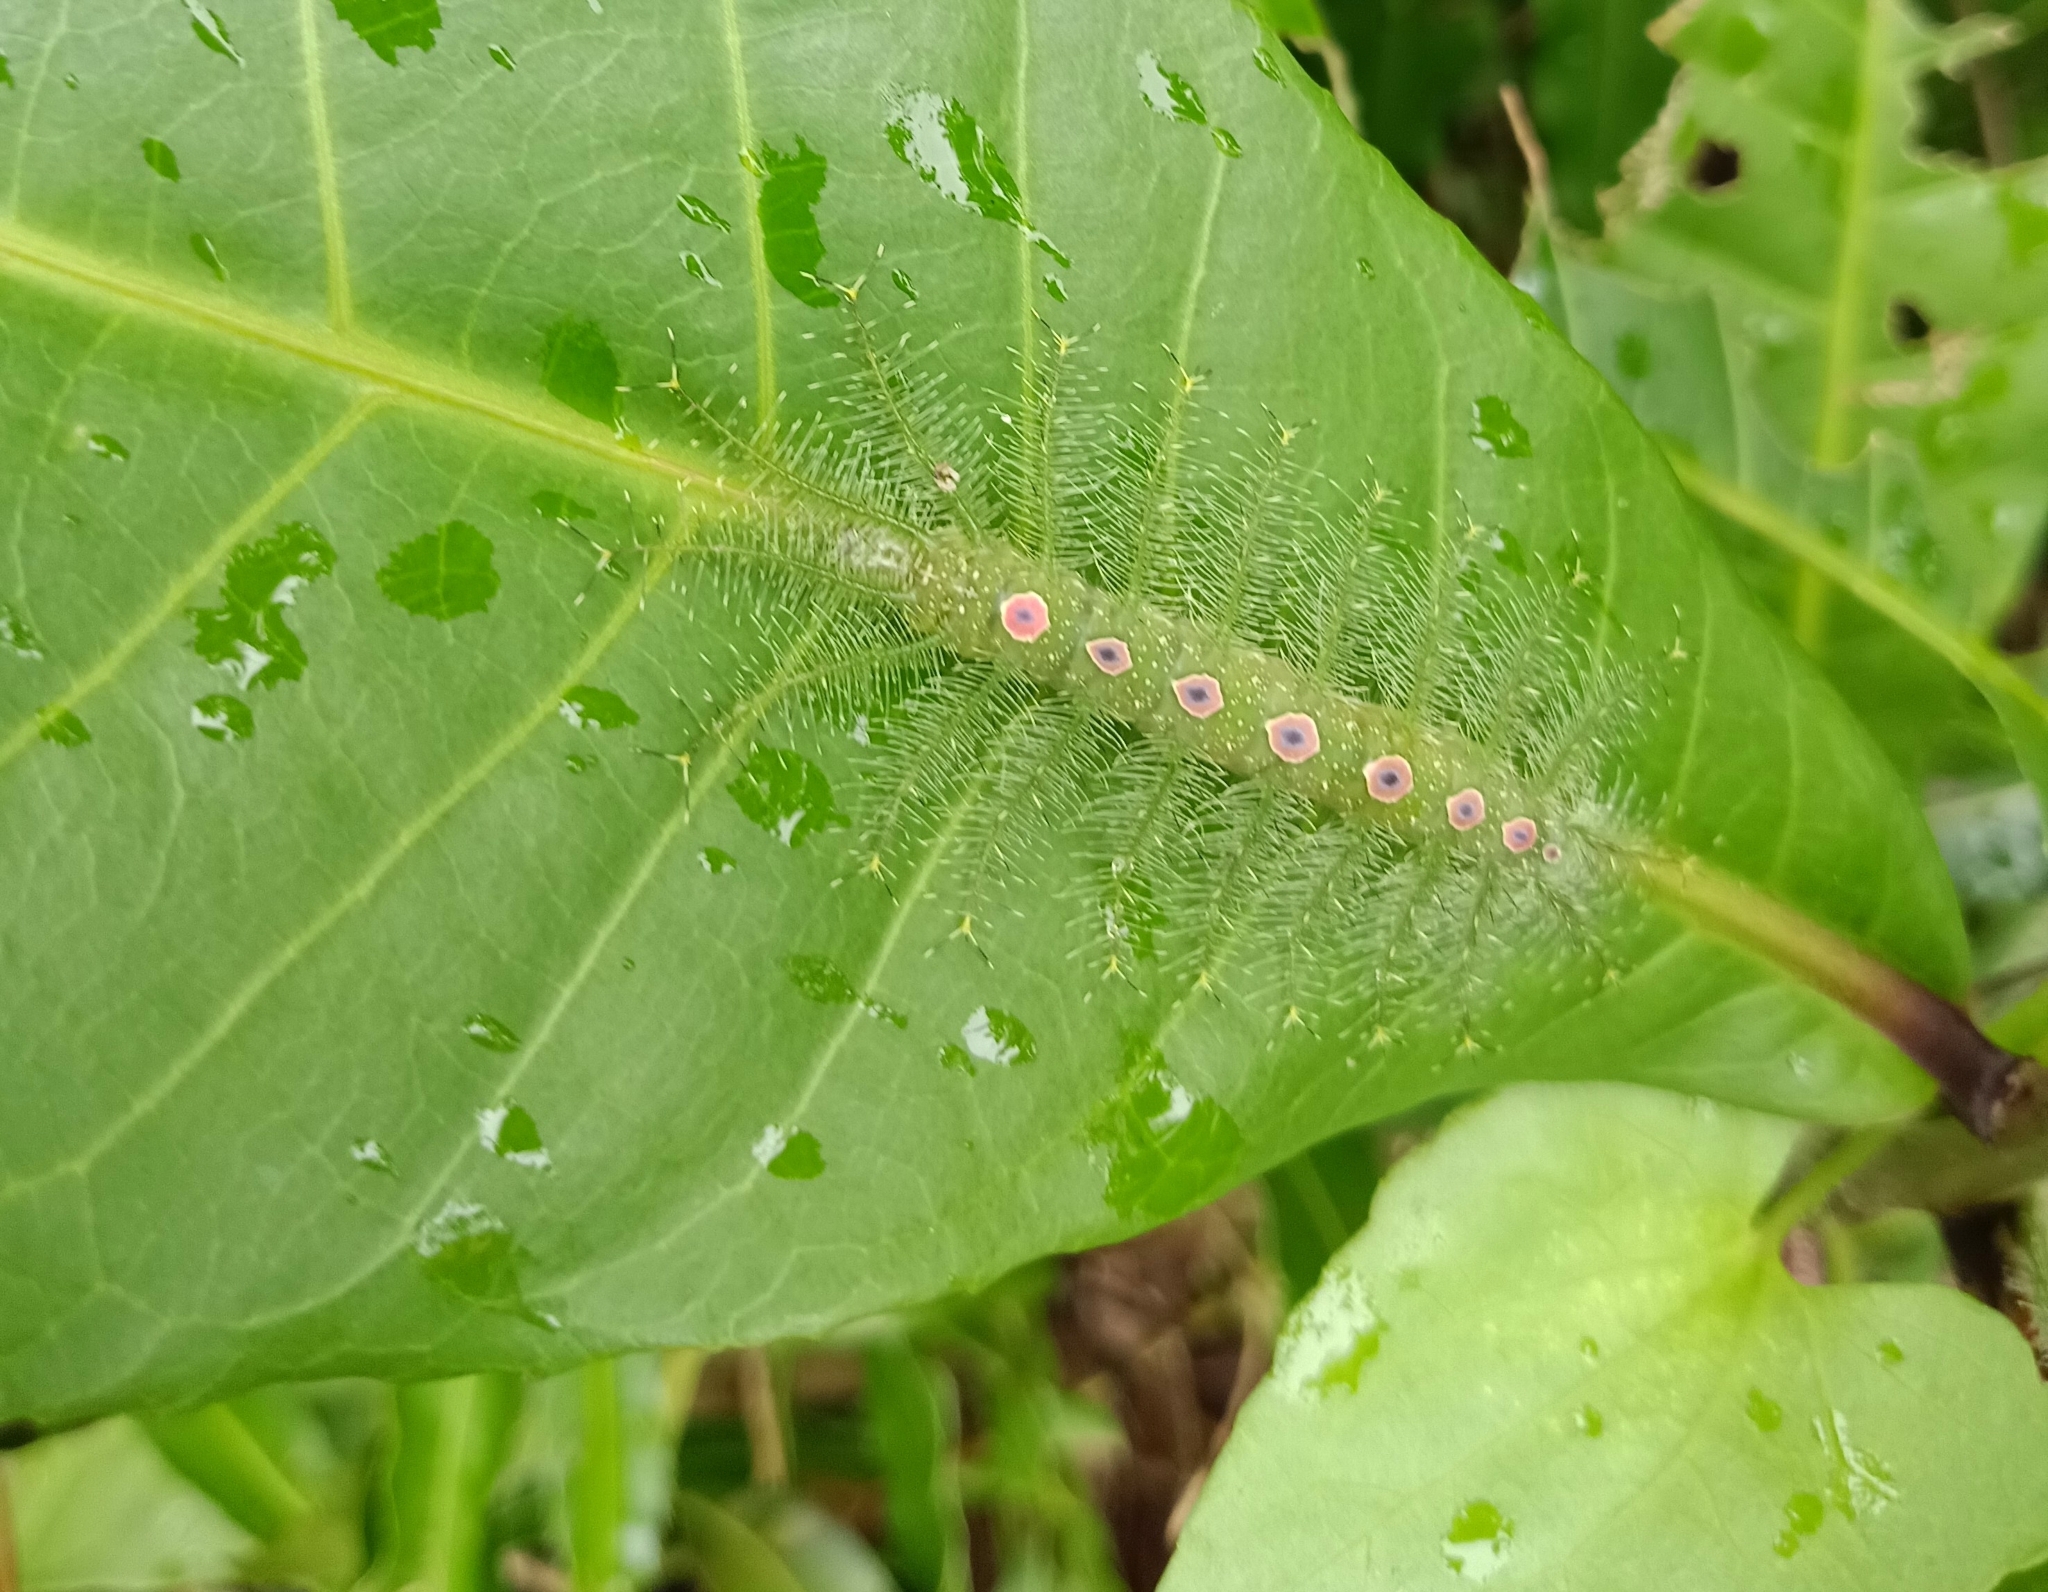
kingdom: Animalia
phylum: Arthropoda
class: Insecta
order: Lepidoptera
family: Nymphalidae
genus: Tanaecia
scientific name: Tanaecia lepidea
